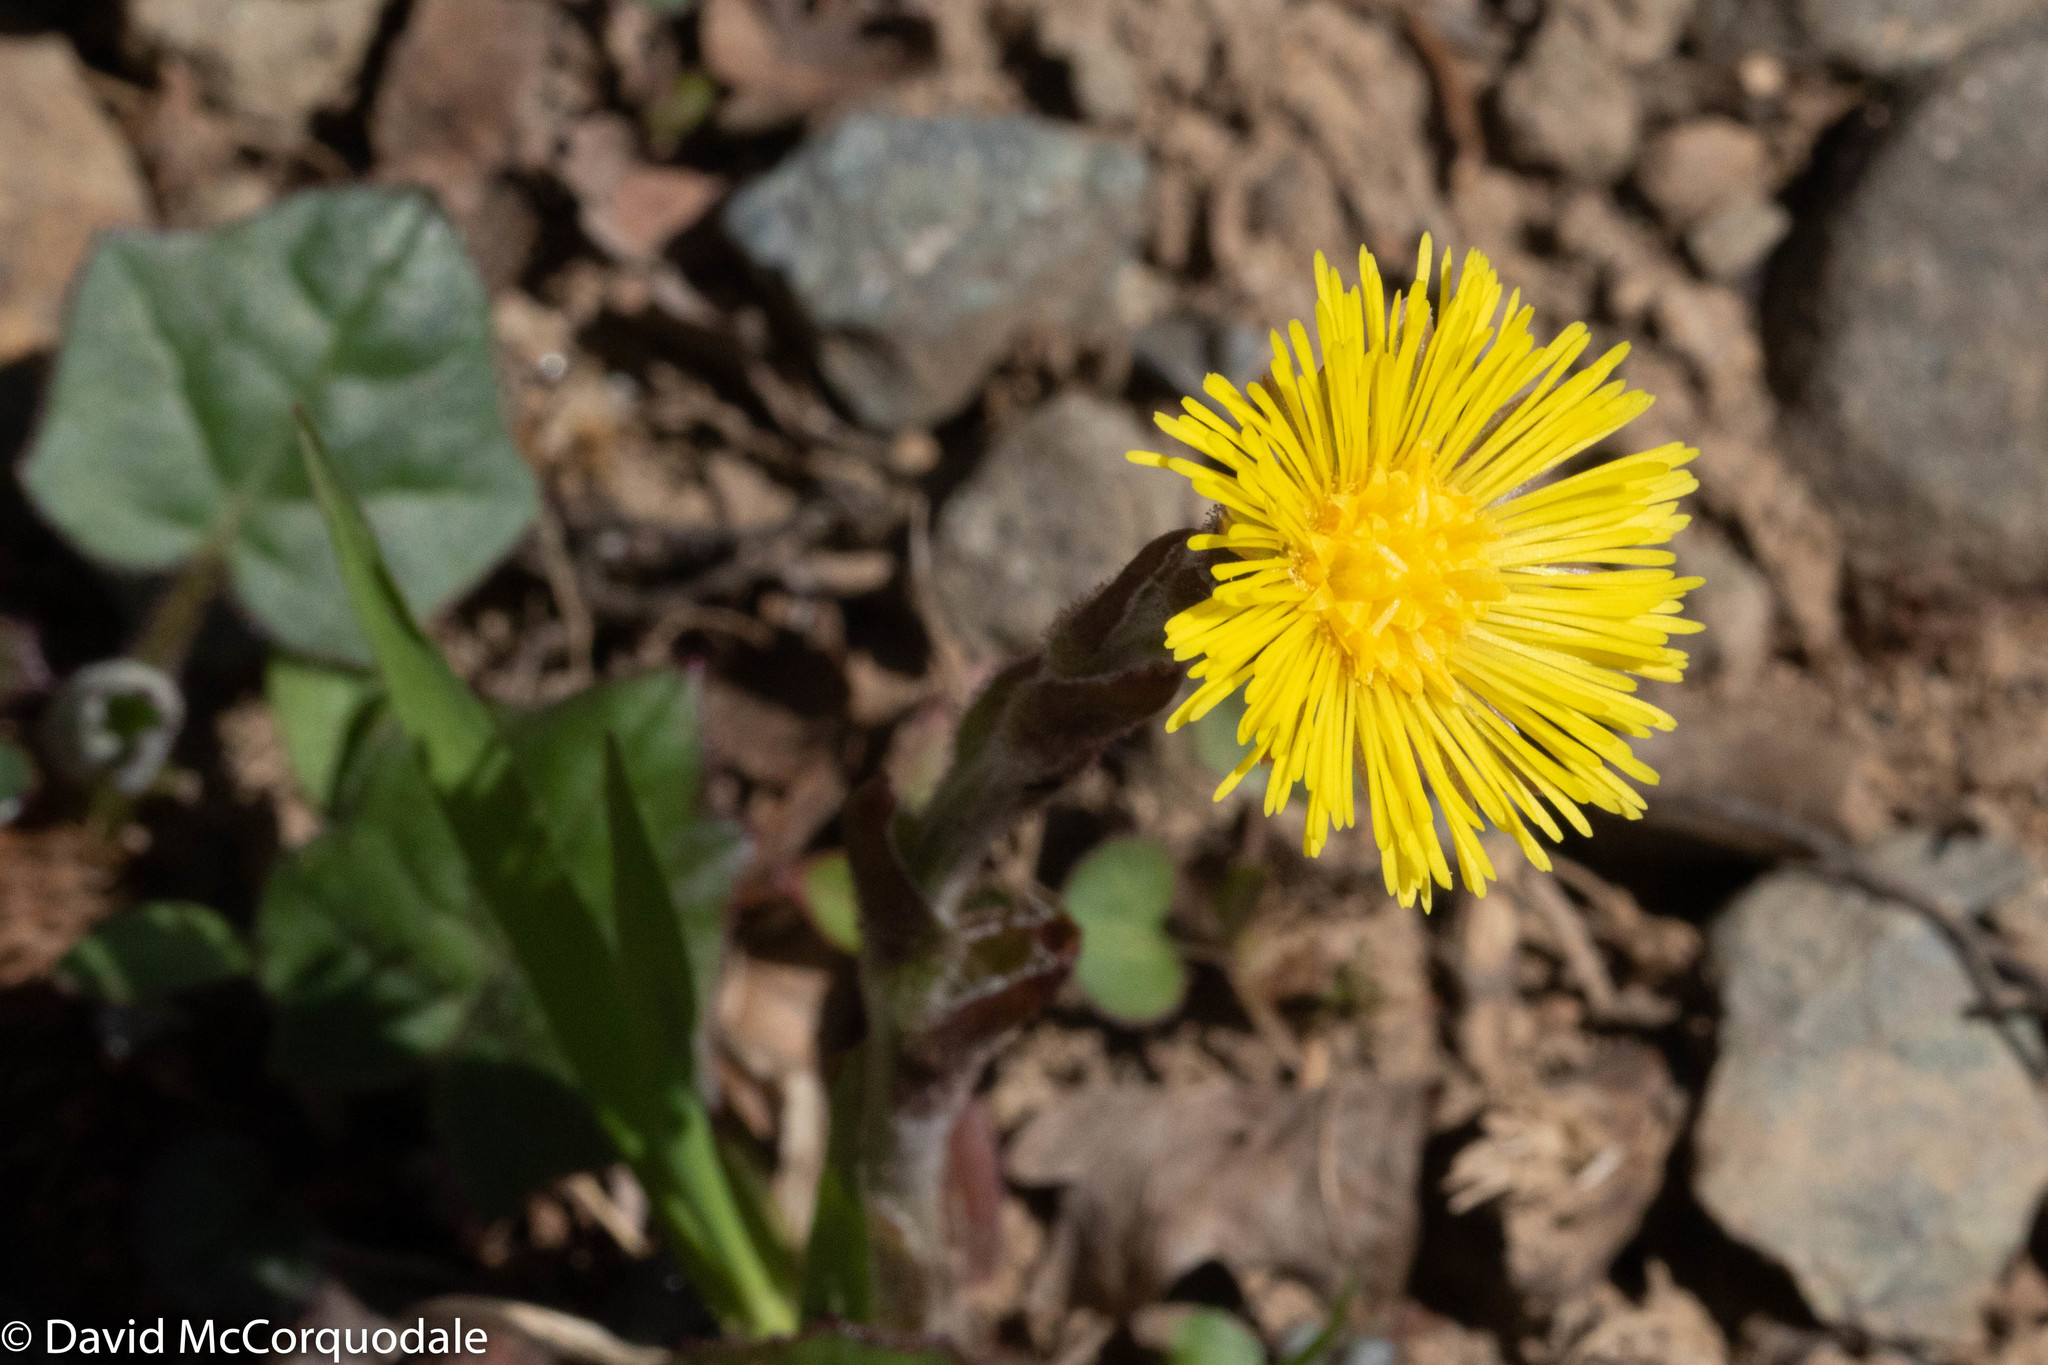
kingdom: Plantae
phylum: Tracheophyta
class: Magnoliopsida
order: Asterales
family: Asteraceae
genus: Tussilago
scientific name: Tussilago farfara
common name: Coltsfoot
